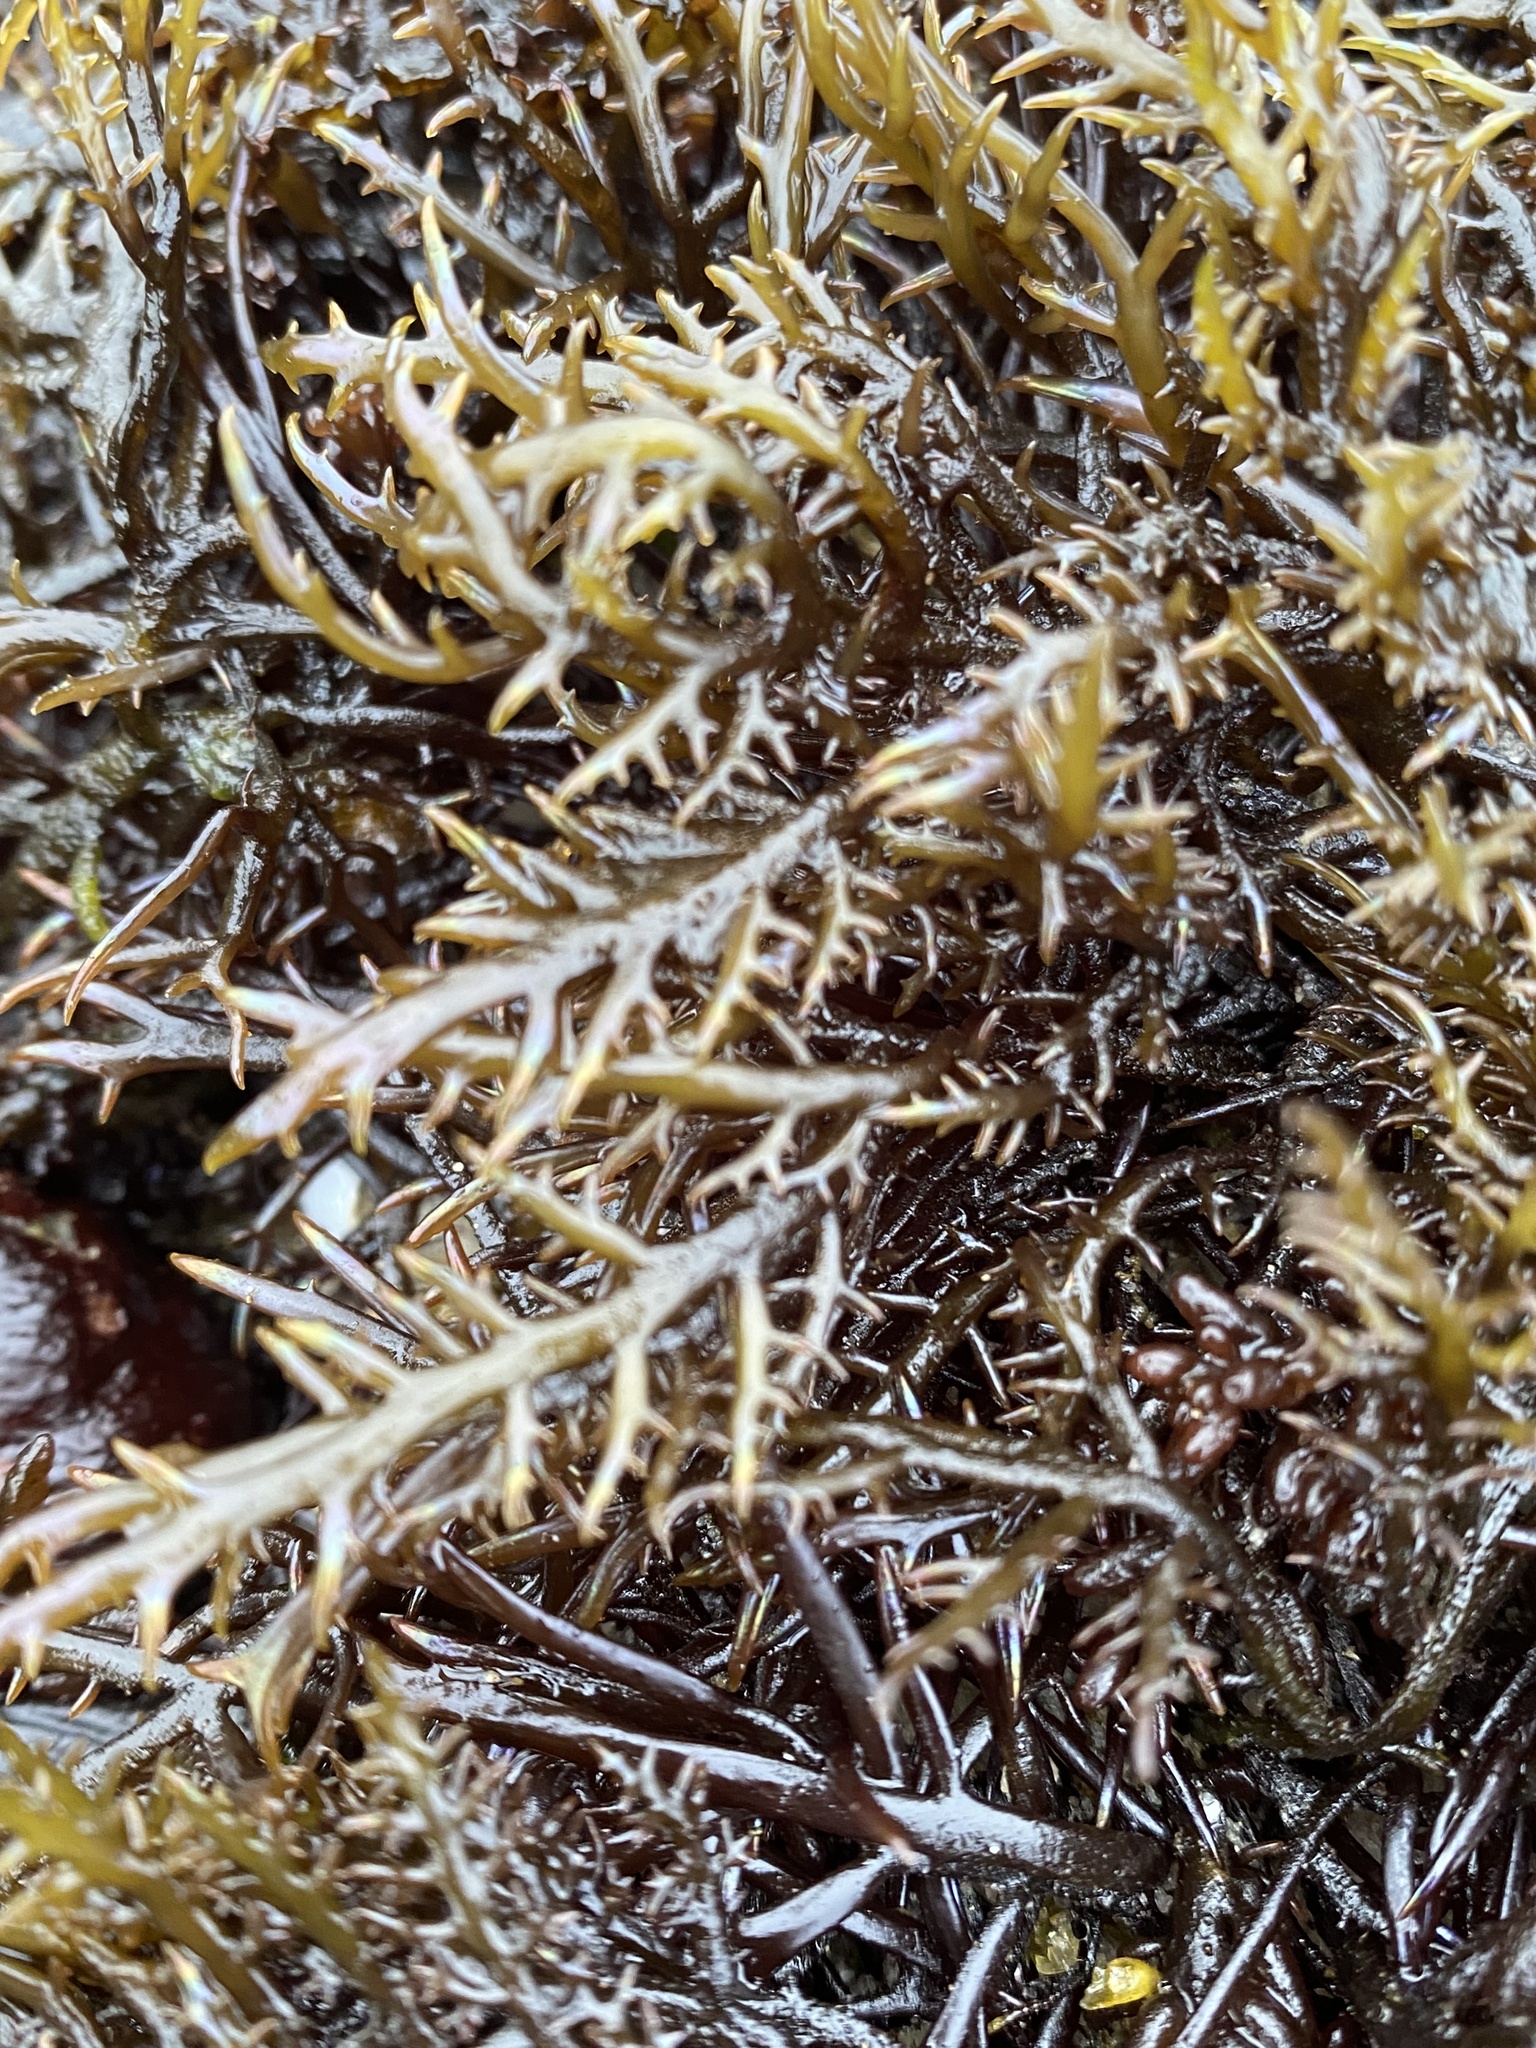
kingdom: Plantae
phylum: Rhodophyta
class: Florideophyceae
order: Gigartinales
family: Gigartinaceae
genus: Chondracanthus
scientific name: Chondracanthus canaliculatus
